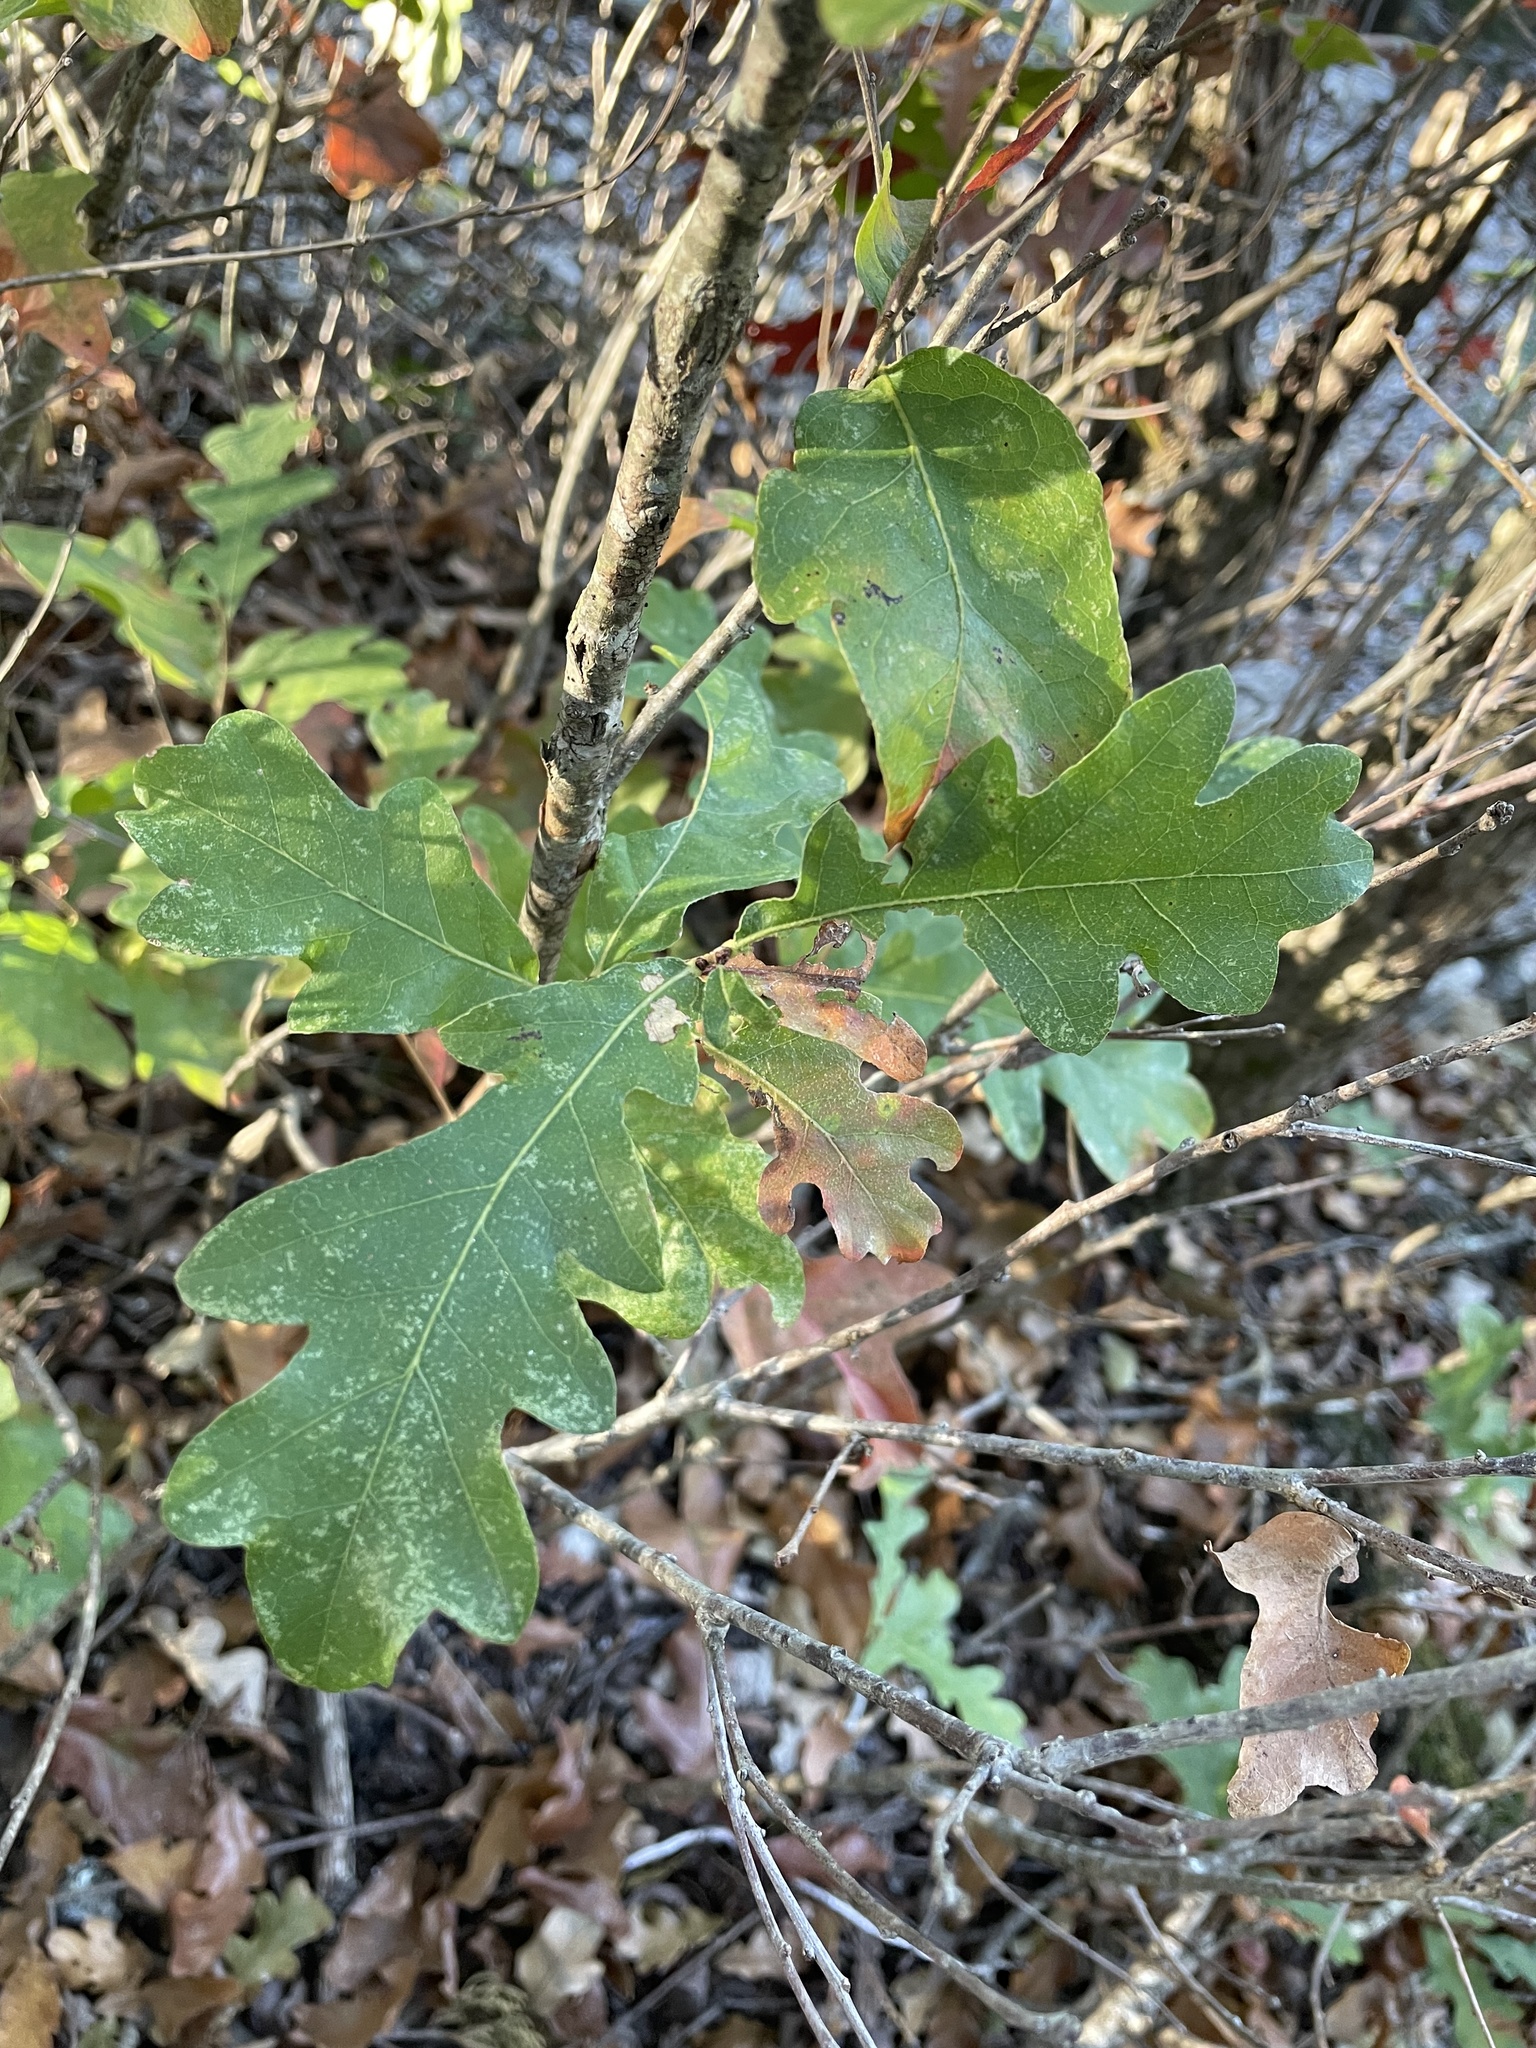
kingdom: Plantae
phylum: Tracheophyta
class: Magnoliopsida
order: Fagales
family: Fagaceae
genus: Quercus
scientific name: Quercus sinuata
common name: Durand oak
